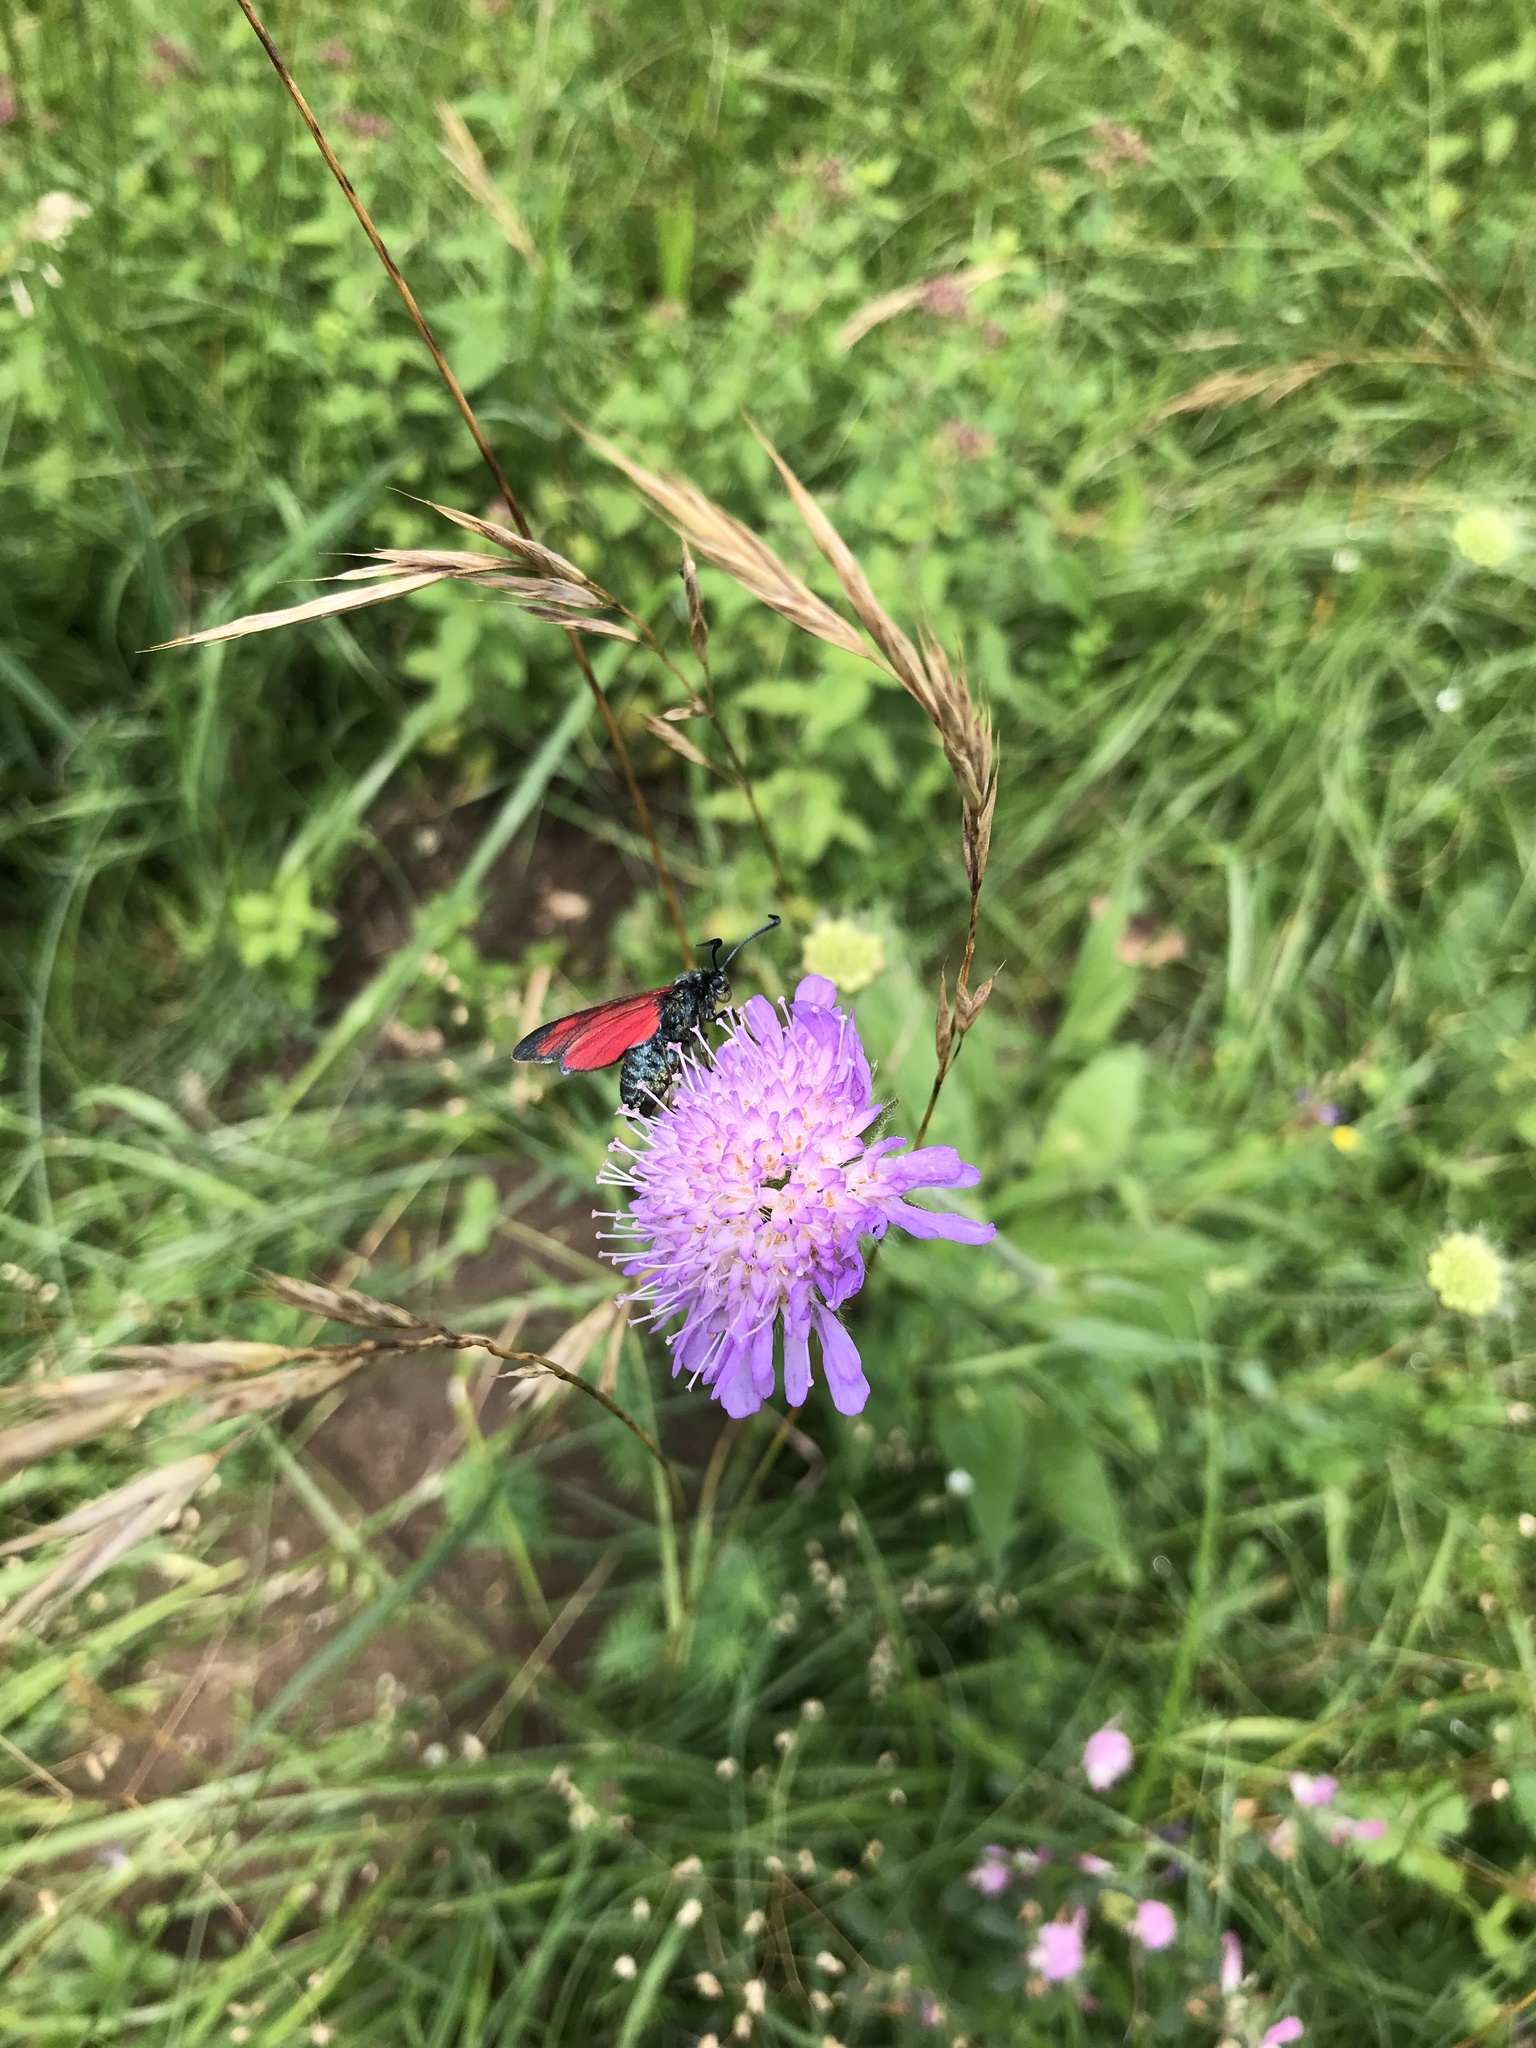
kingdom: Animalia
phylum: Arthropoda
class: Insecta
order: Lepidoptera
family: Zygaenidae
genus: Zygaena
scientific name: Zygaena filipendulae
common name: Six-spot burnet
